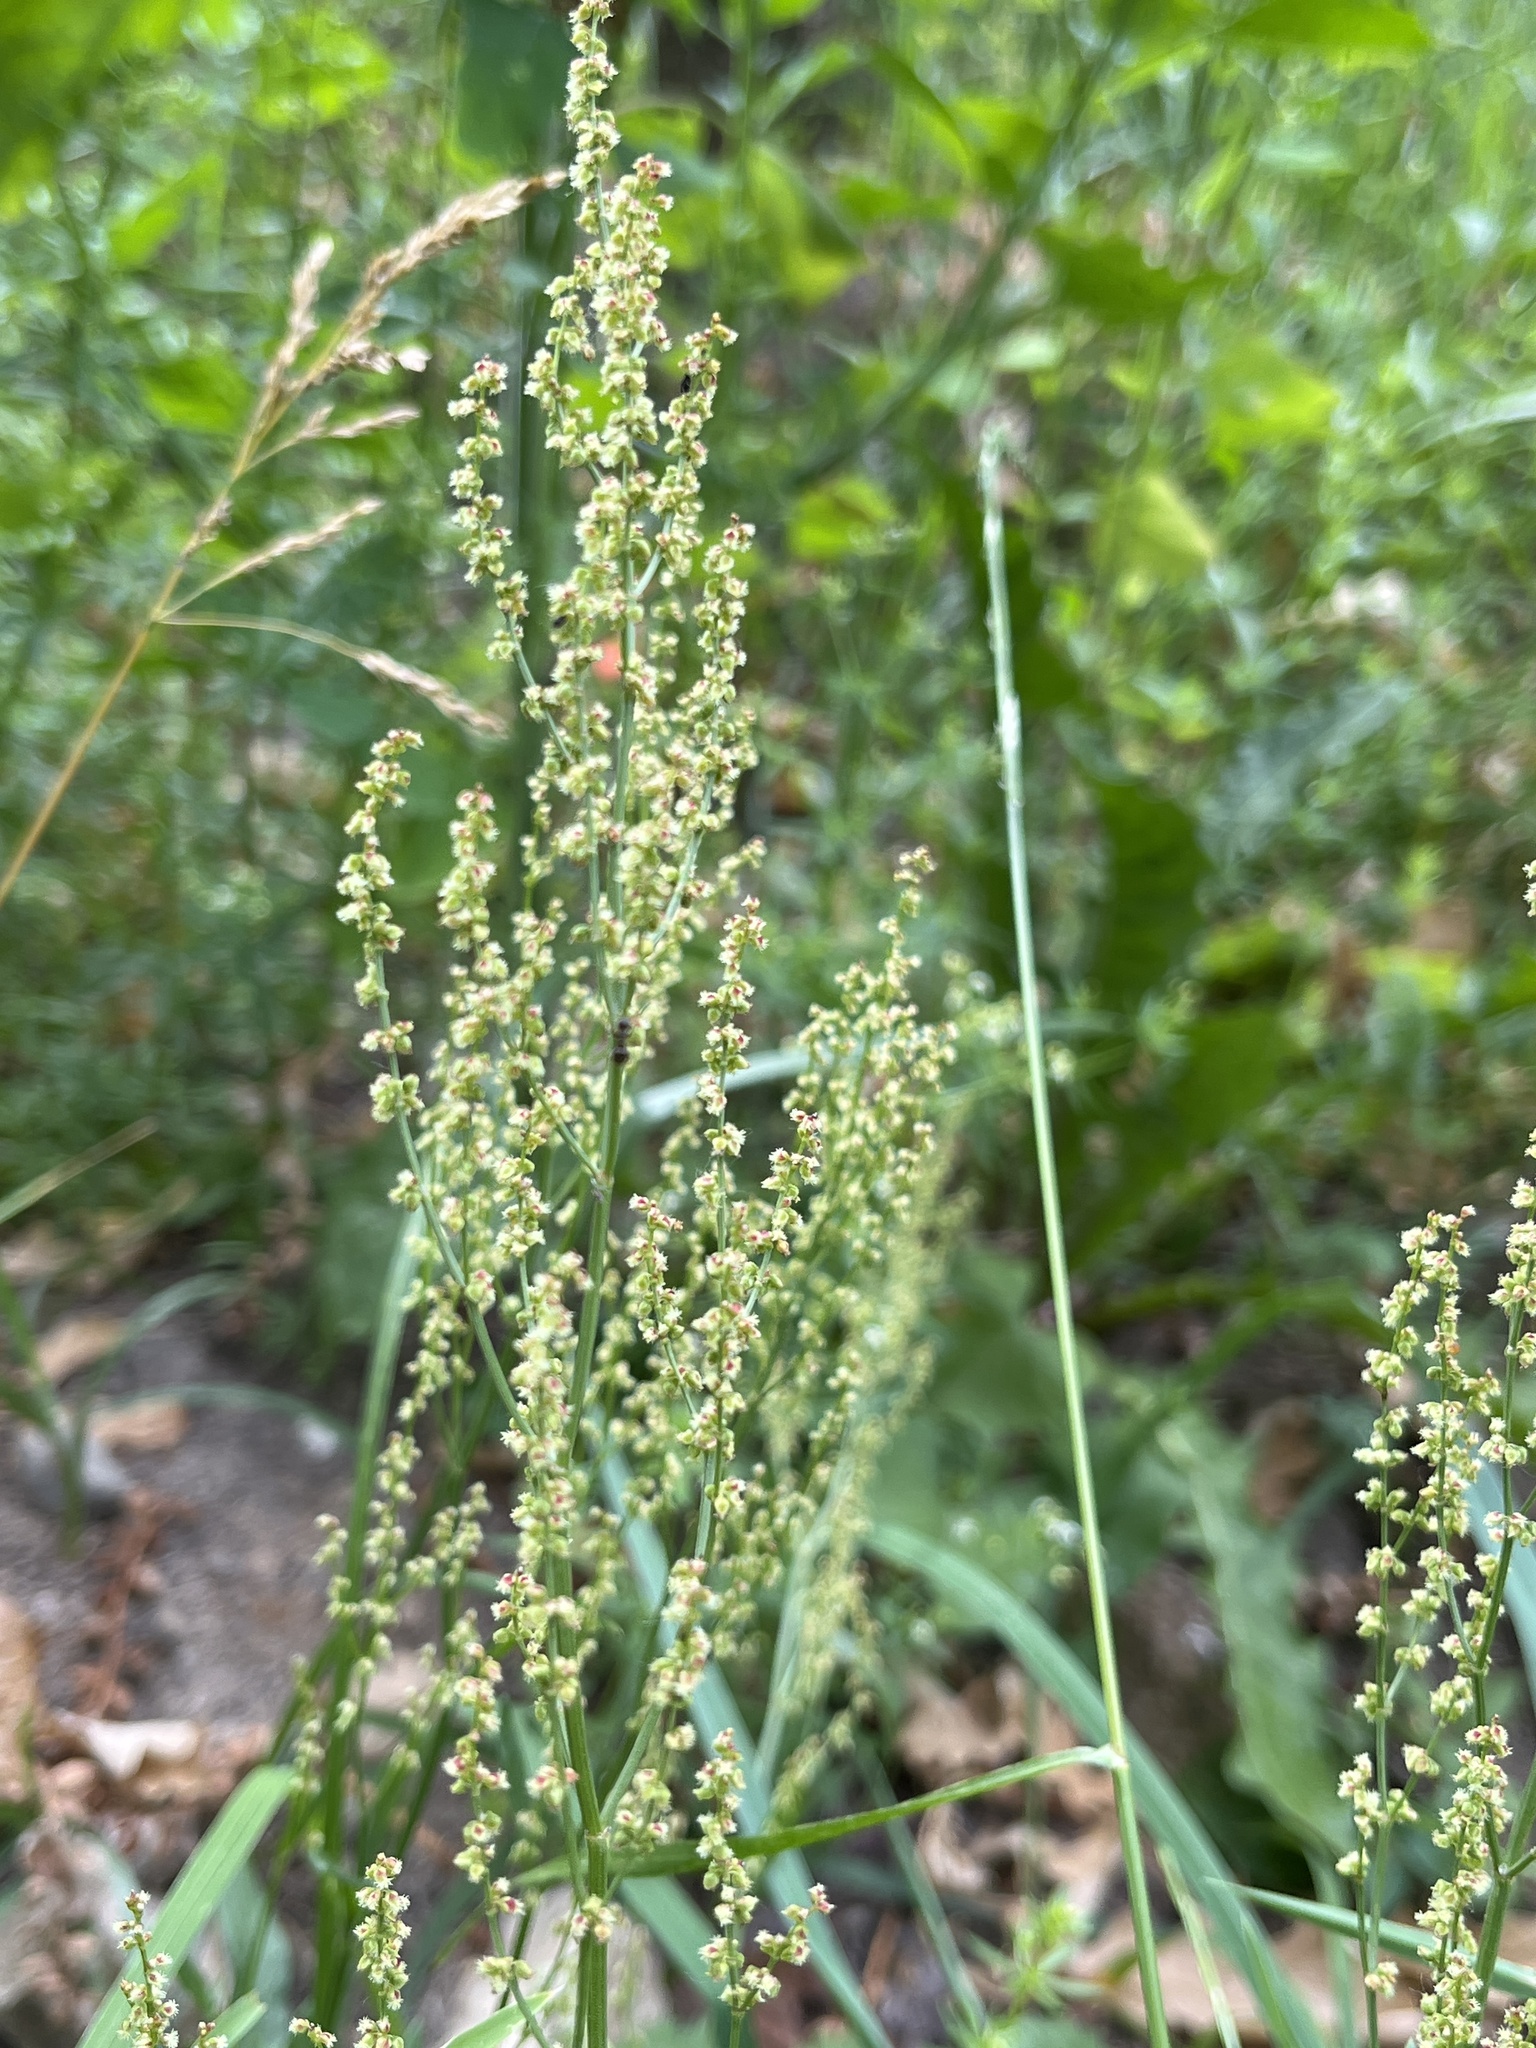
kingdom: Plantae
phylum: Tracheophyta
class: Magnoliopsida
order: Caryophyllales
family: Polygonaceae
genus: Rumex
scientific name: Rumex acetosella
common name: Common sheep sorrel
